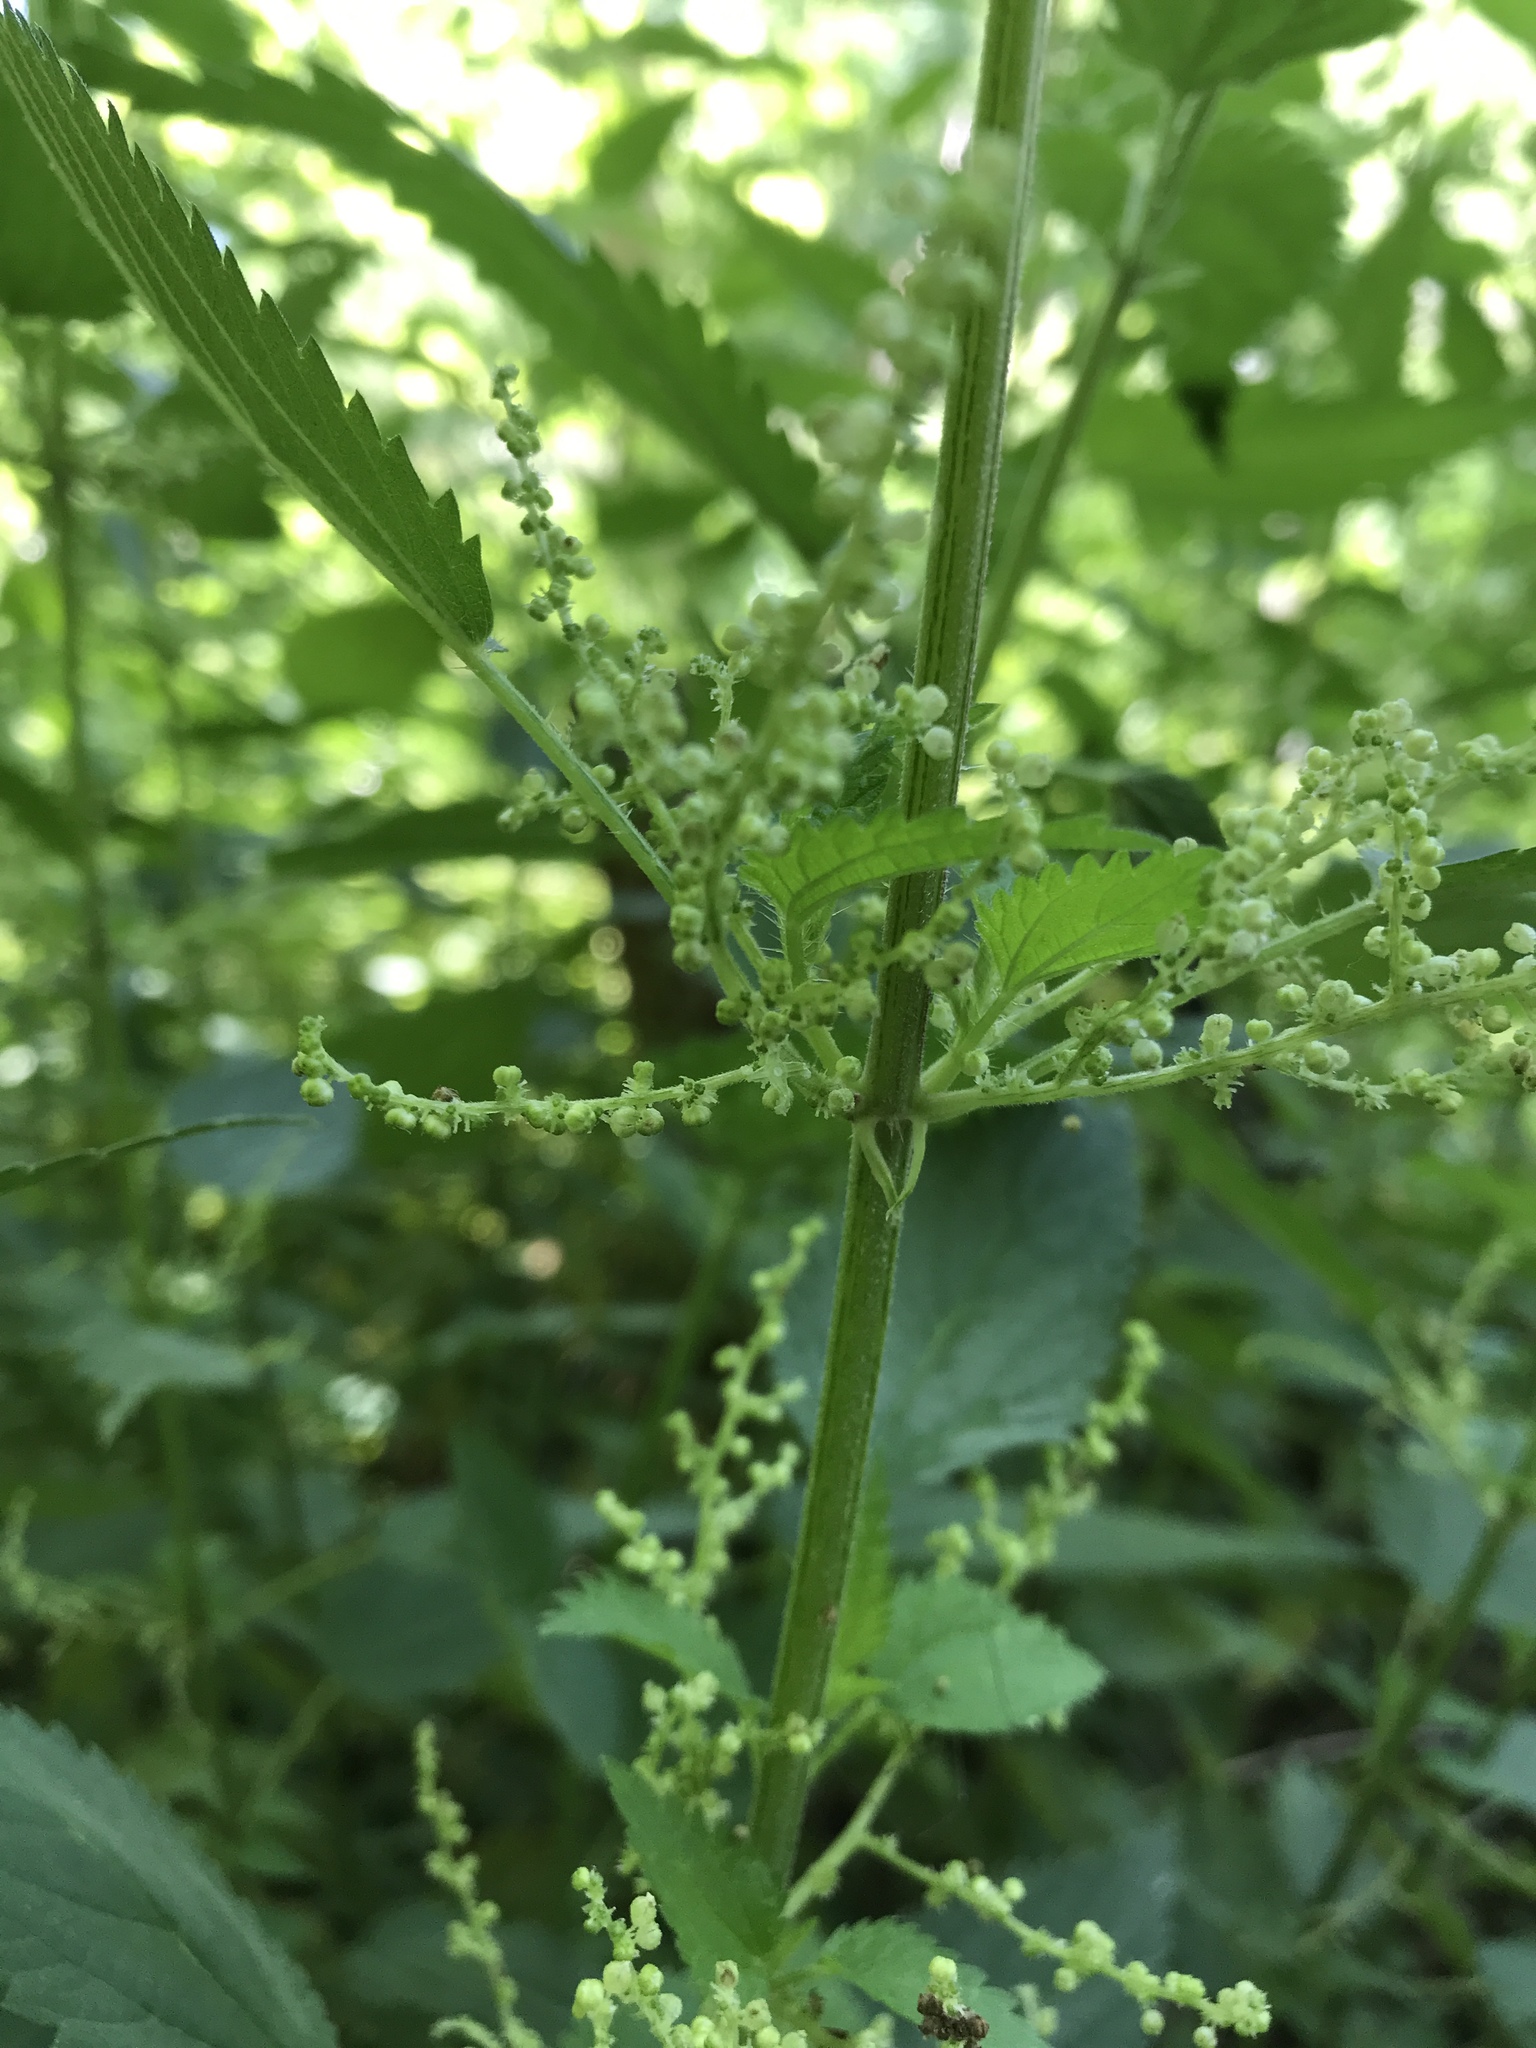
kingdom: Plantae
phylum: Tracheophyta
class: Magnoliopsida
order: Rosales
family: Urticaceae
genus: Urtica
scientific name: Urtica gracilis
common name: Slender stinging nettle
